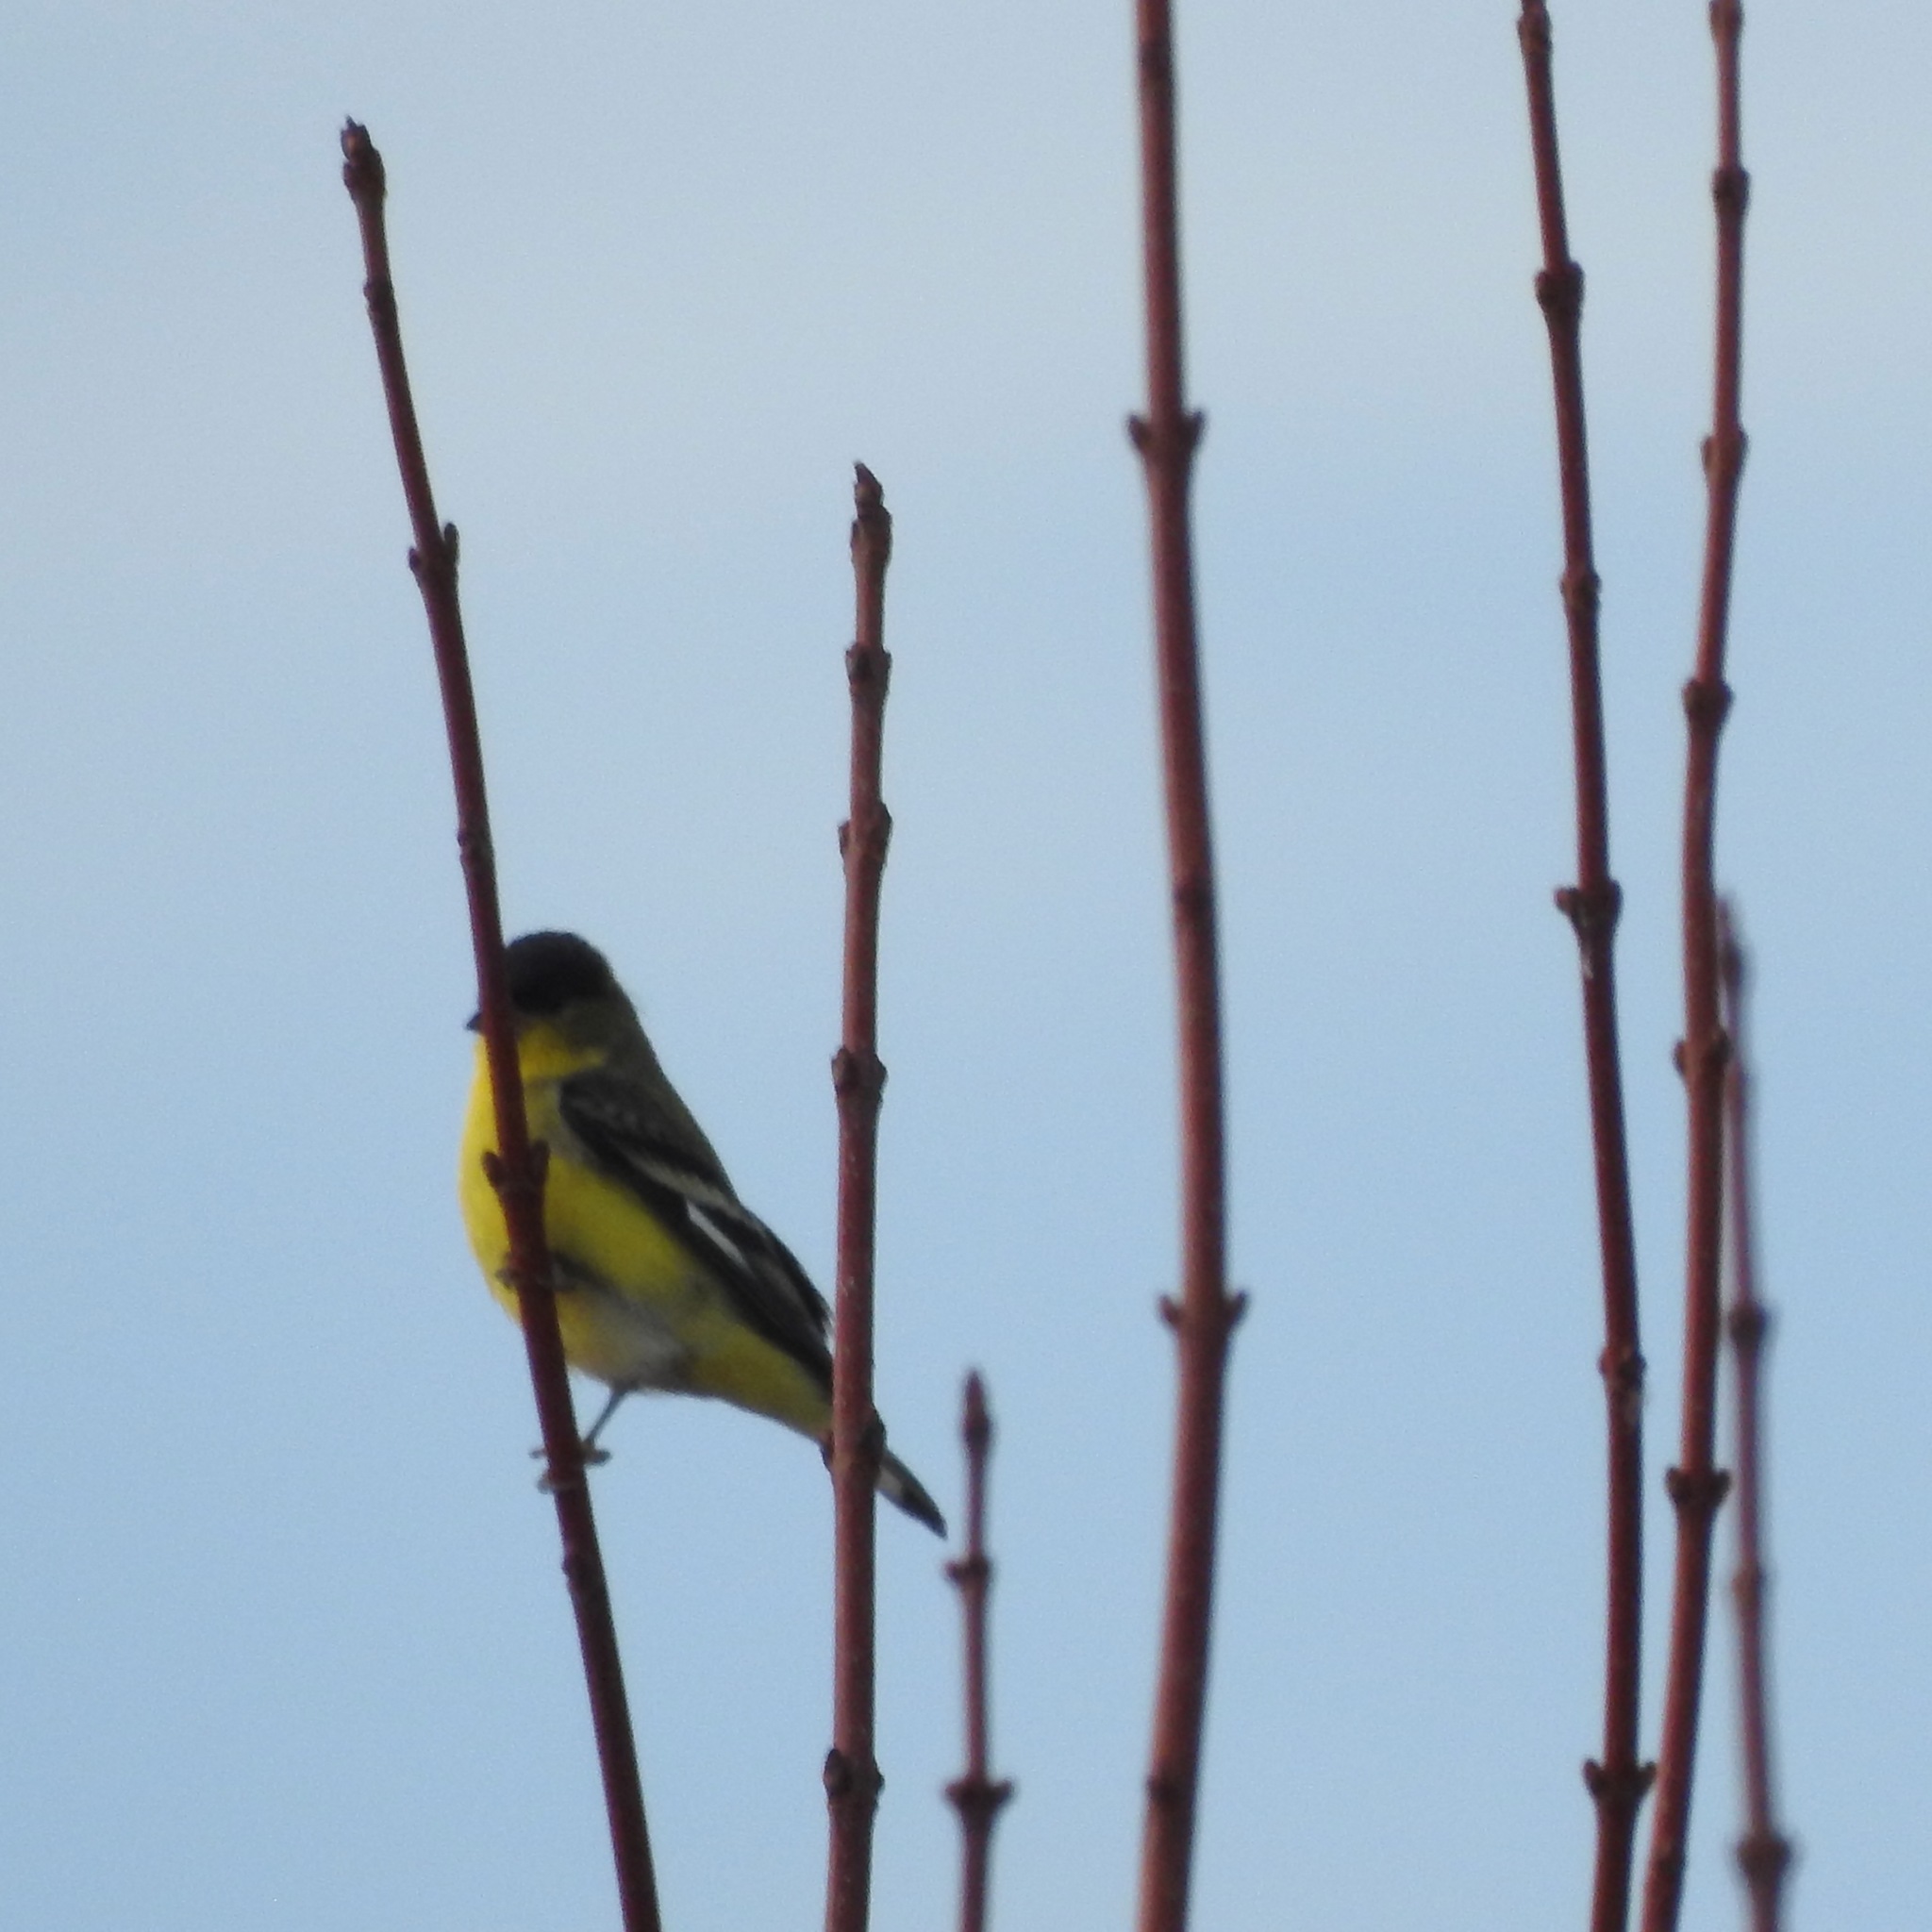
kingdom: Animalia
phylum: Chordata
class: Aves
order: Passeriformes
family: Fringillidae
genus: Spinus
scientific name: Spinus psaltria
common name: Lesser goldfinch
